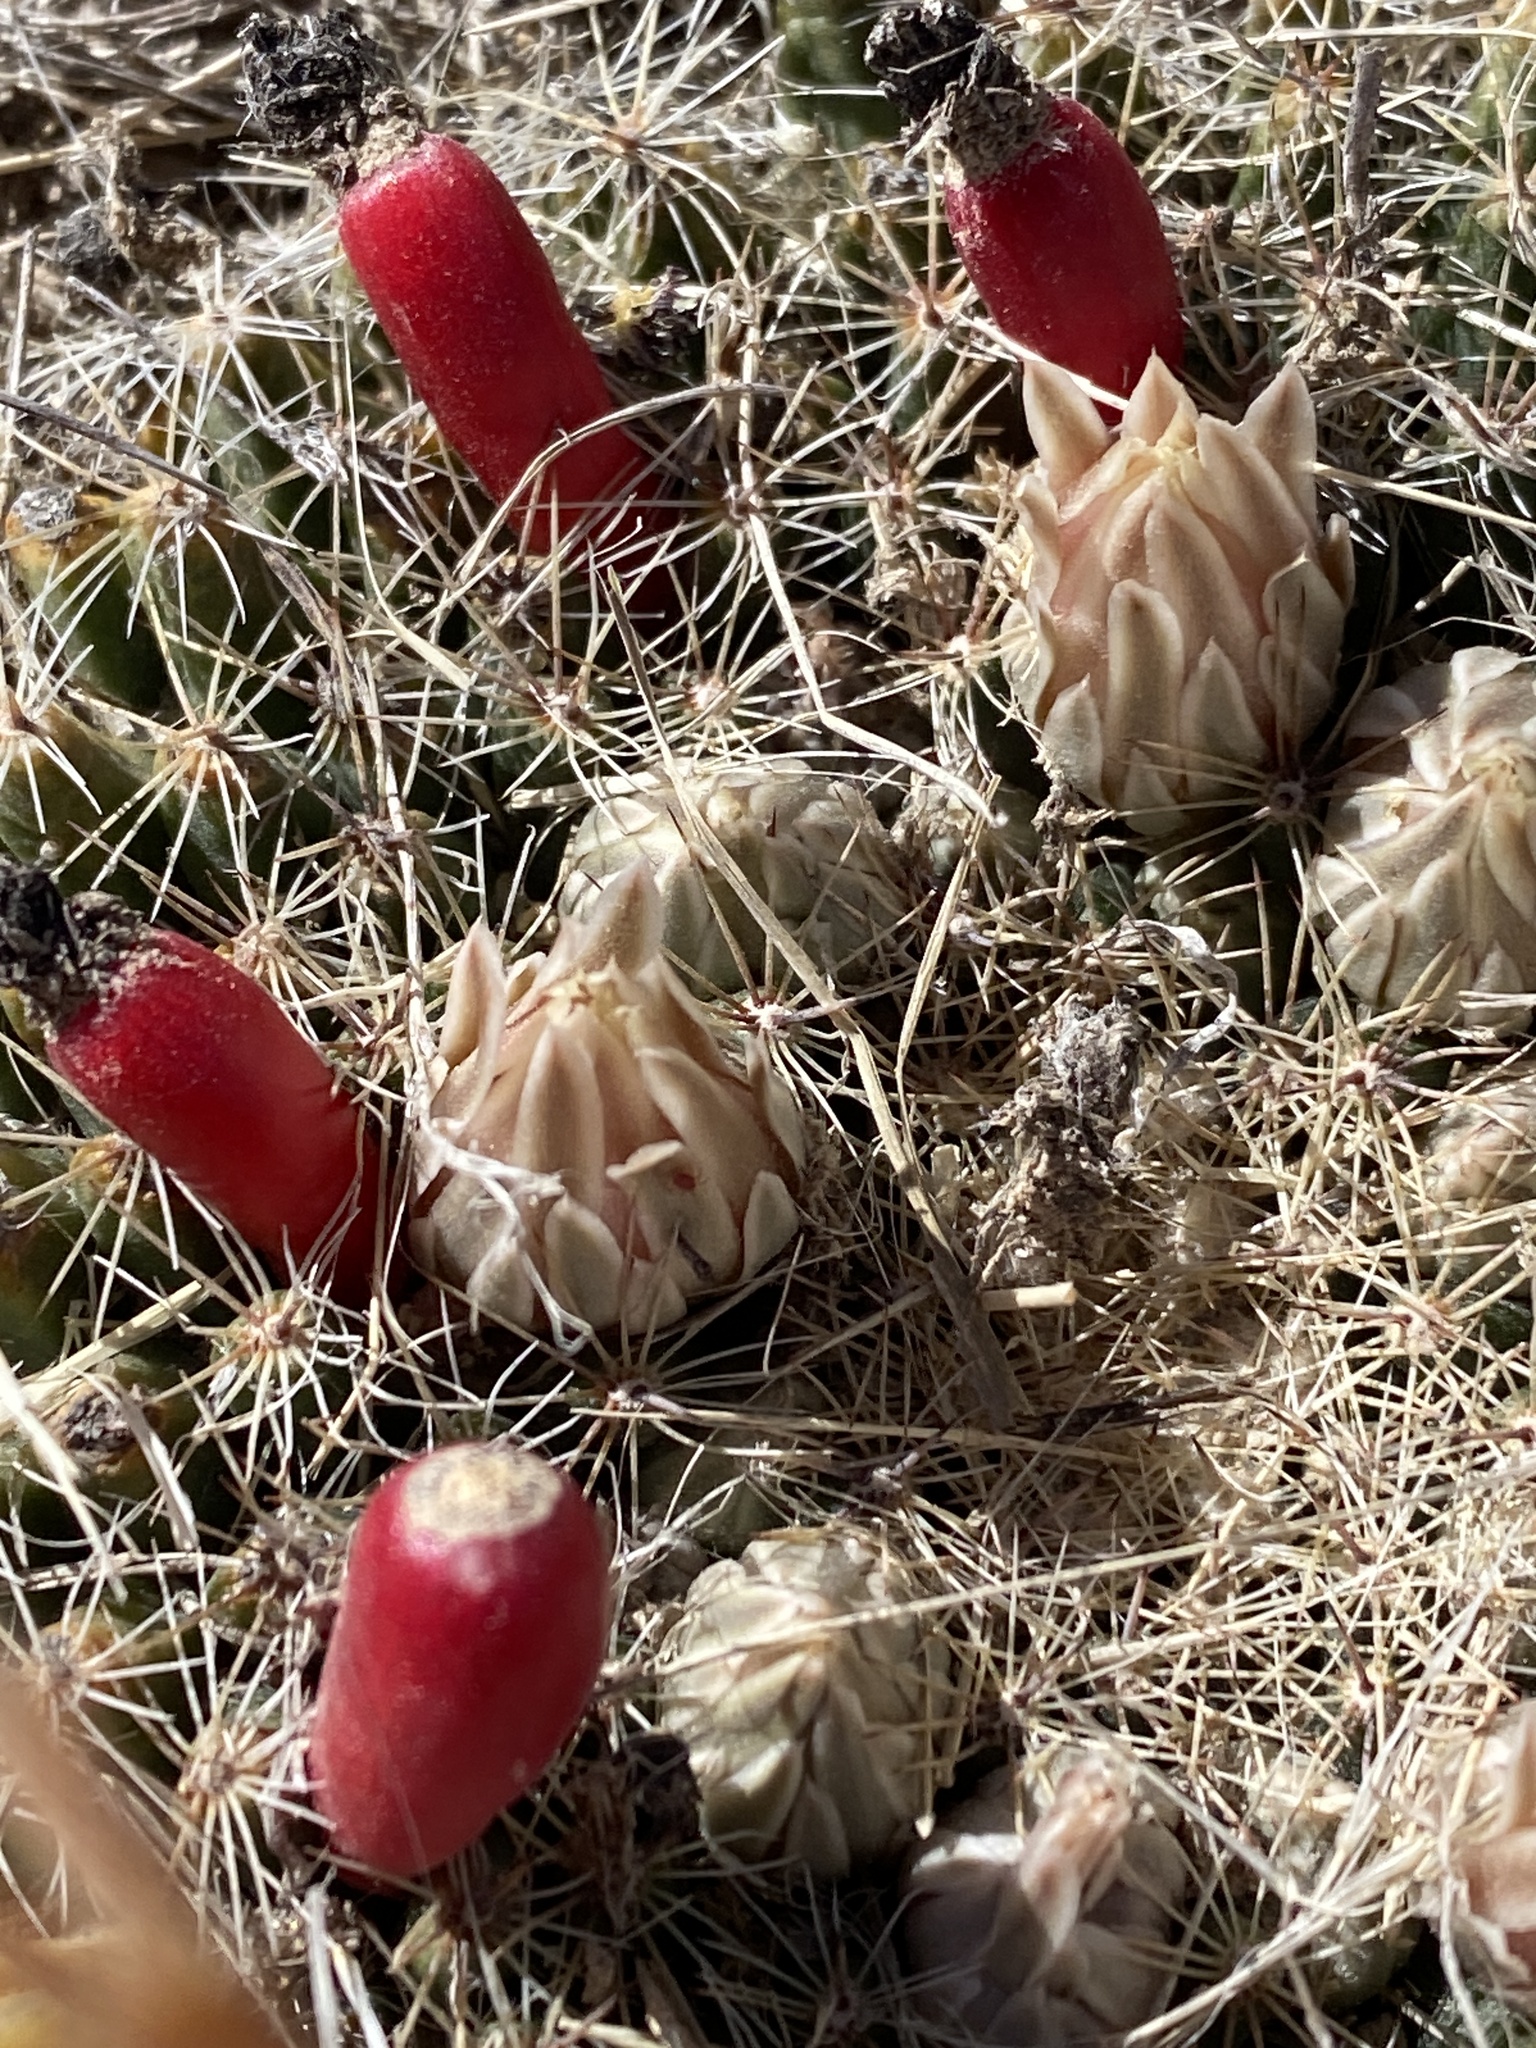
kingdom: Plantae
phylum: Tracheophyta
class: Magnoliopsida
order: Caryophyllales
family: Cactaceae
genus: Mammillaria
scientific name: Mammillaria heyderi
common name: Little nipple cactus
